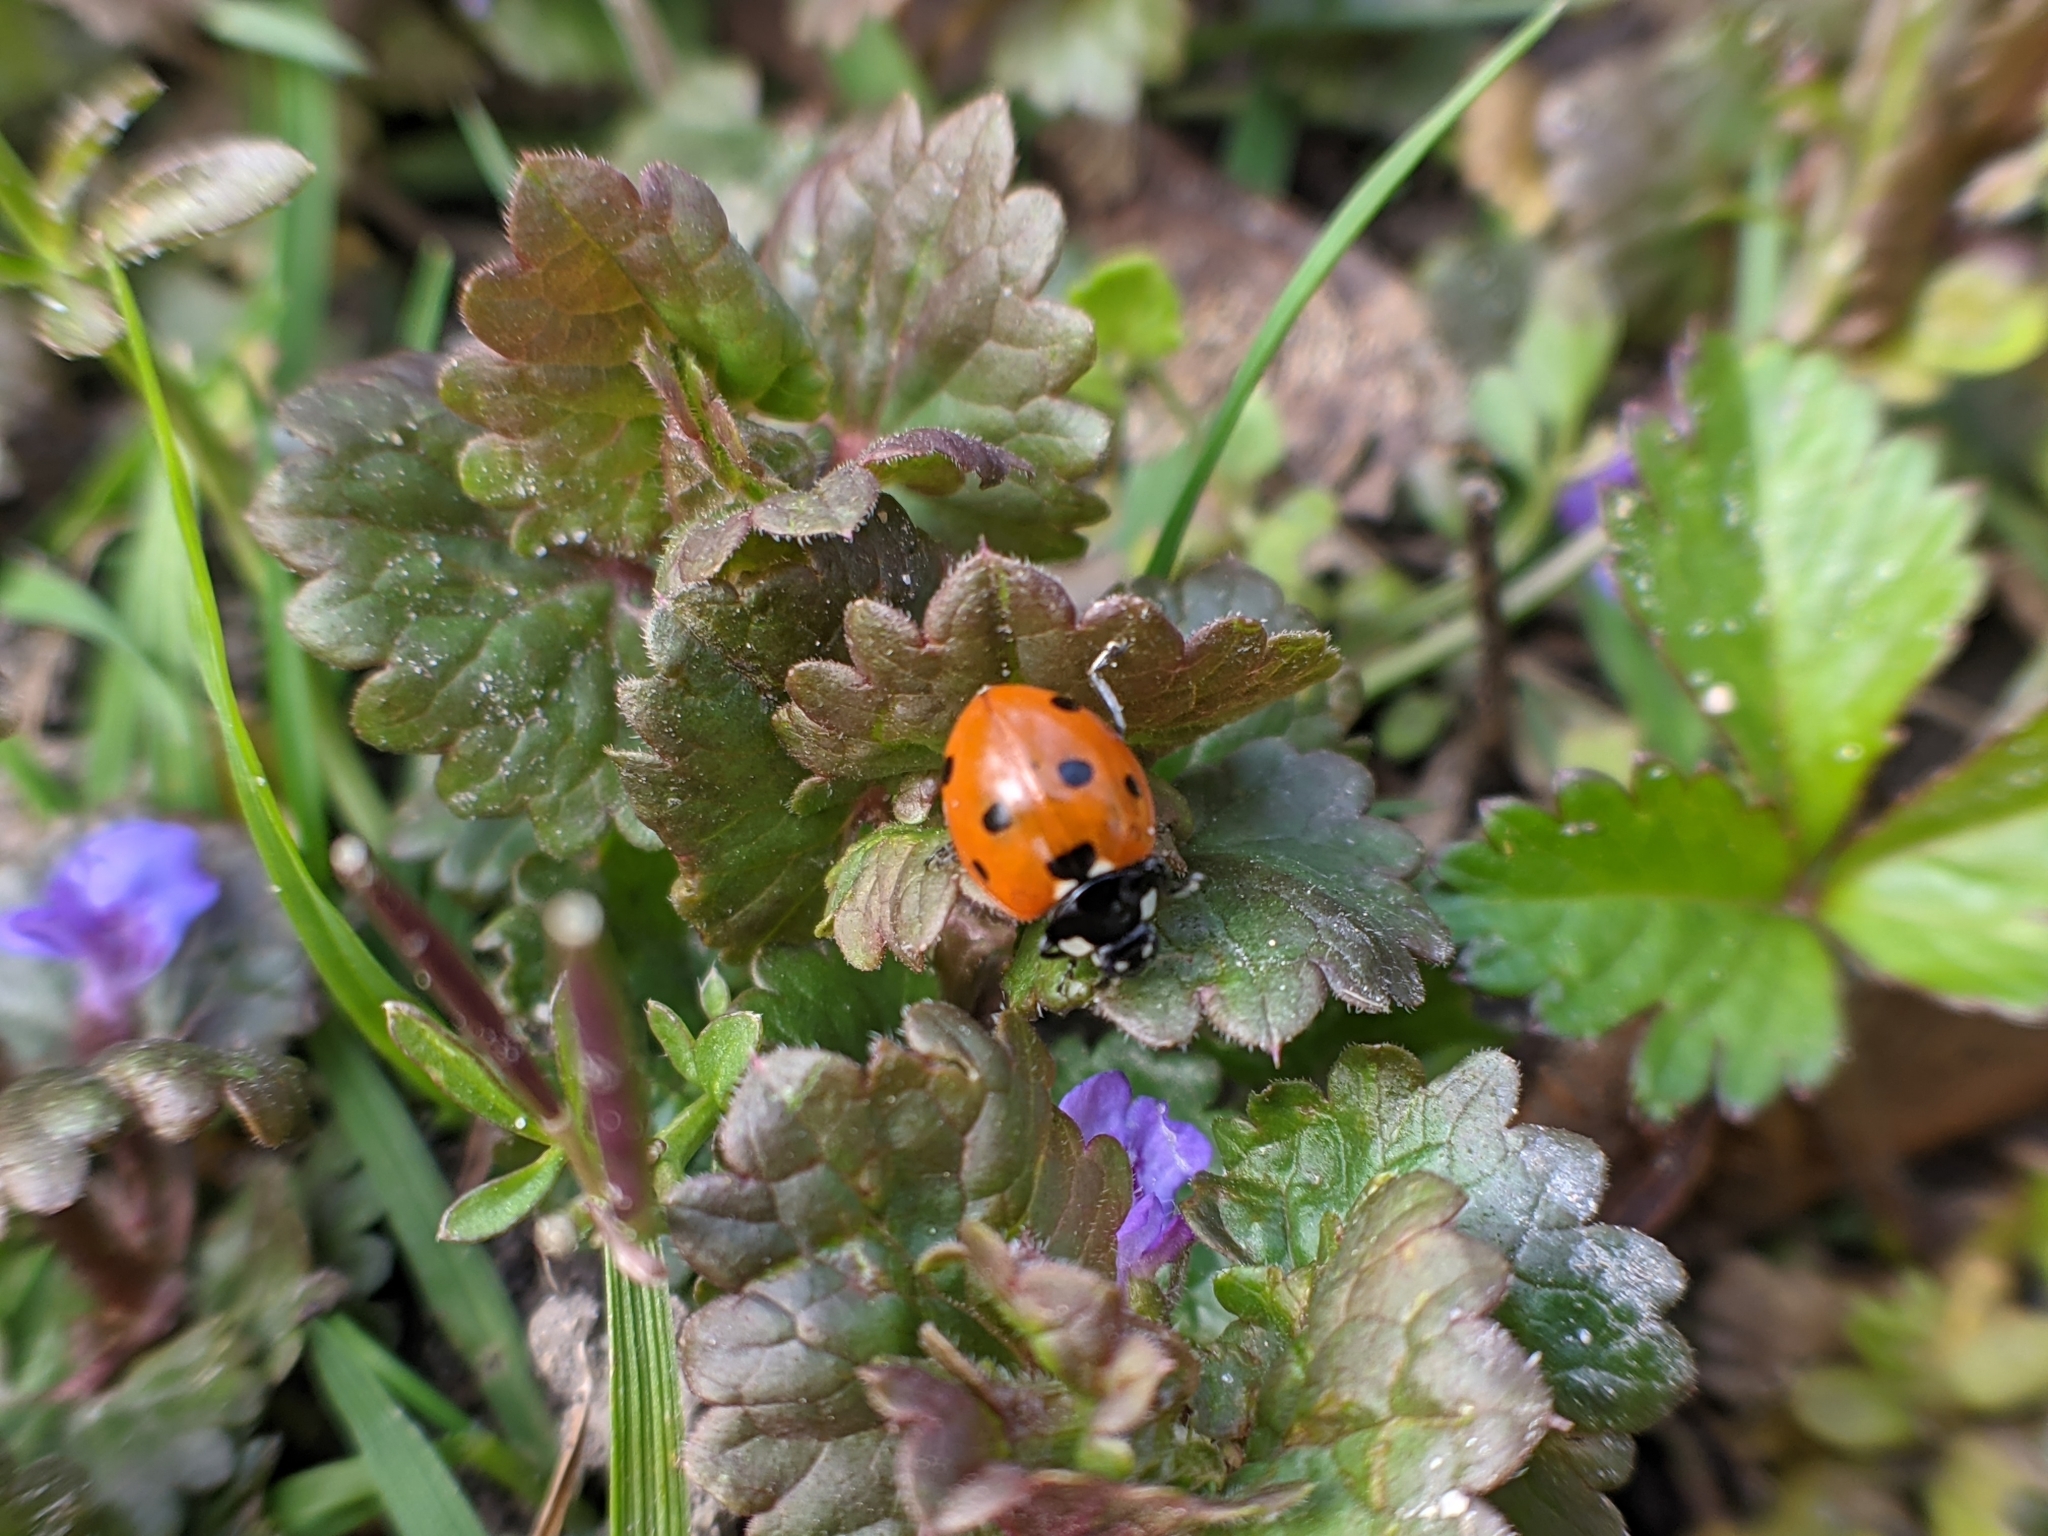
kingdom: Animalia
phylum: Arthropoda
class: Insecta
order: Coleoptera
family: Coccinellidae
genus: Coccinella
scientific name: Coccinella septempunctata
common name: Sevenspotted lady beetle
